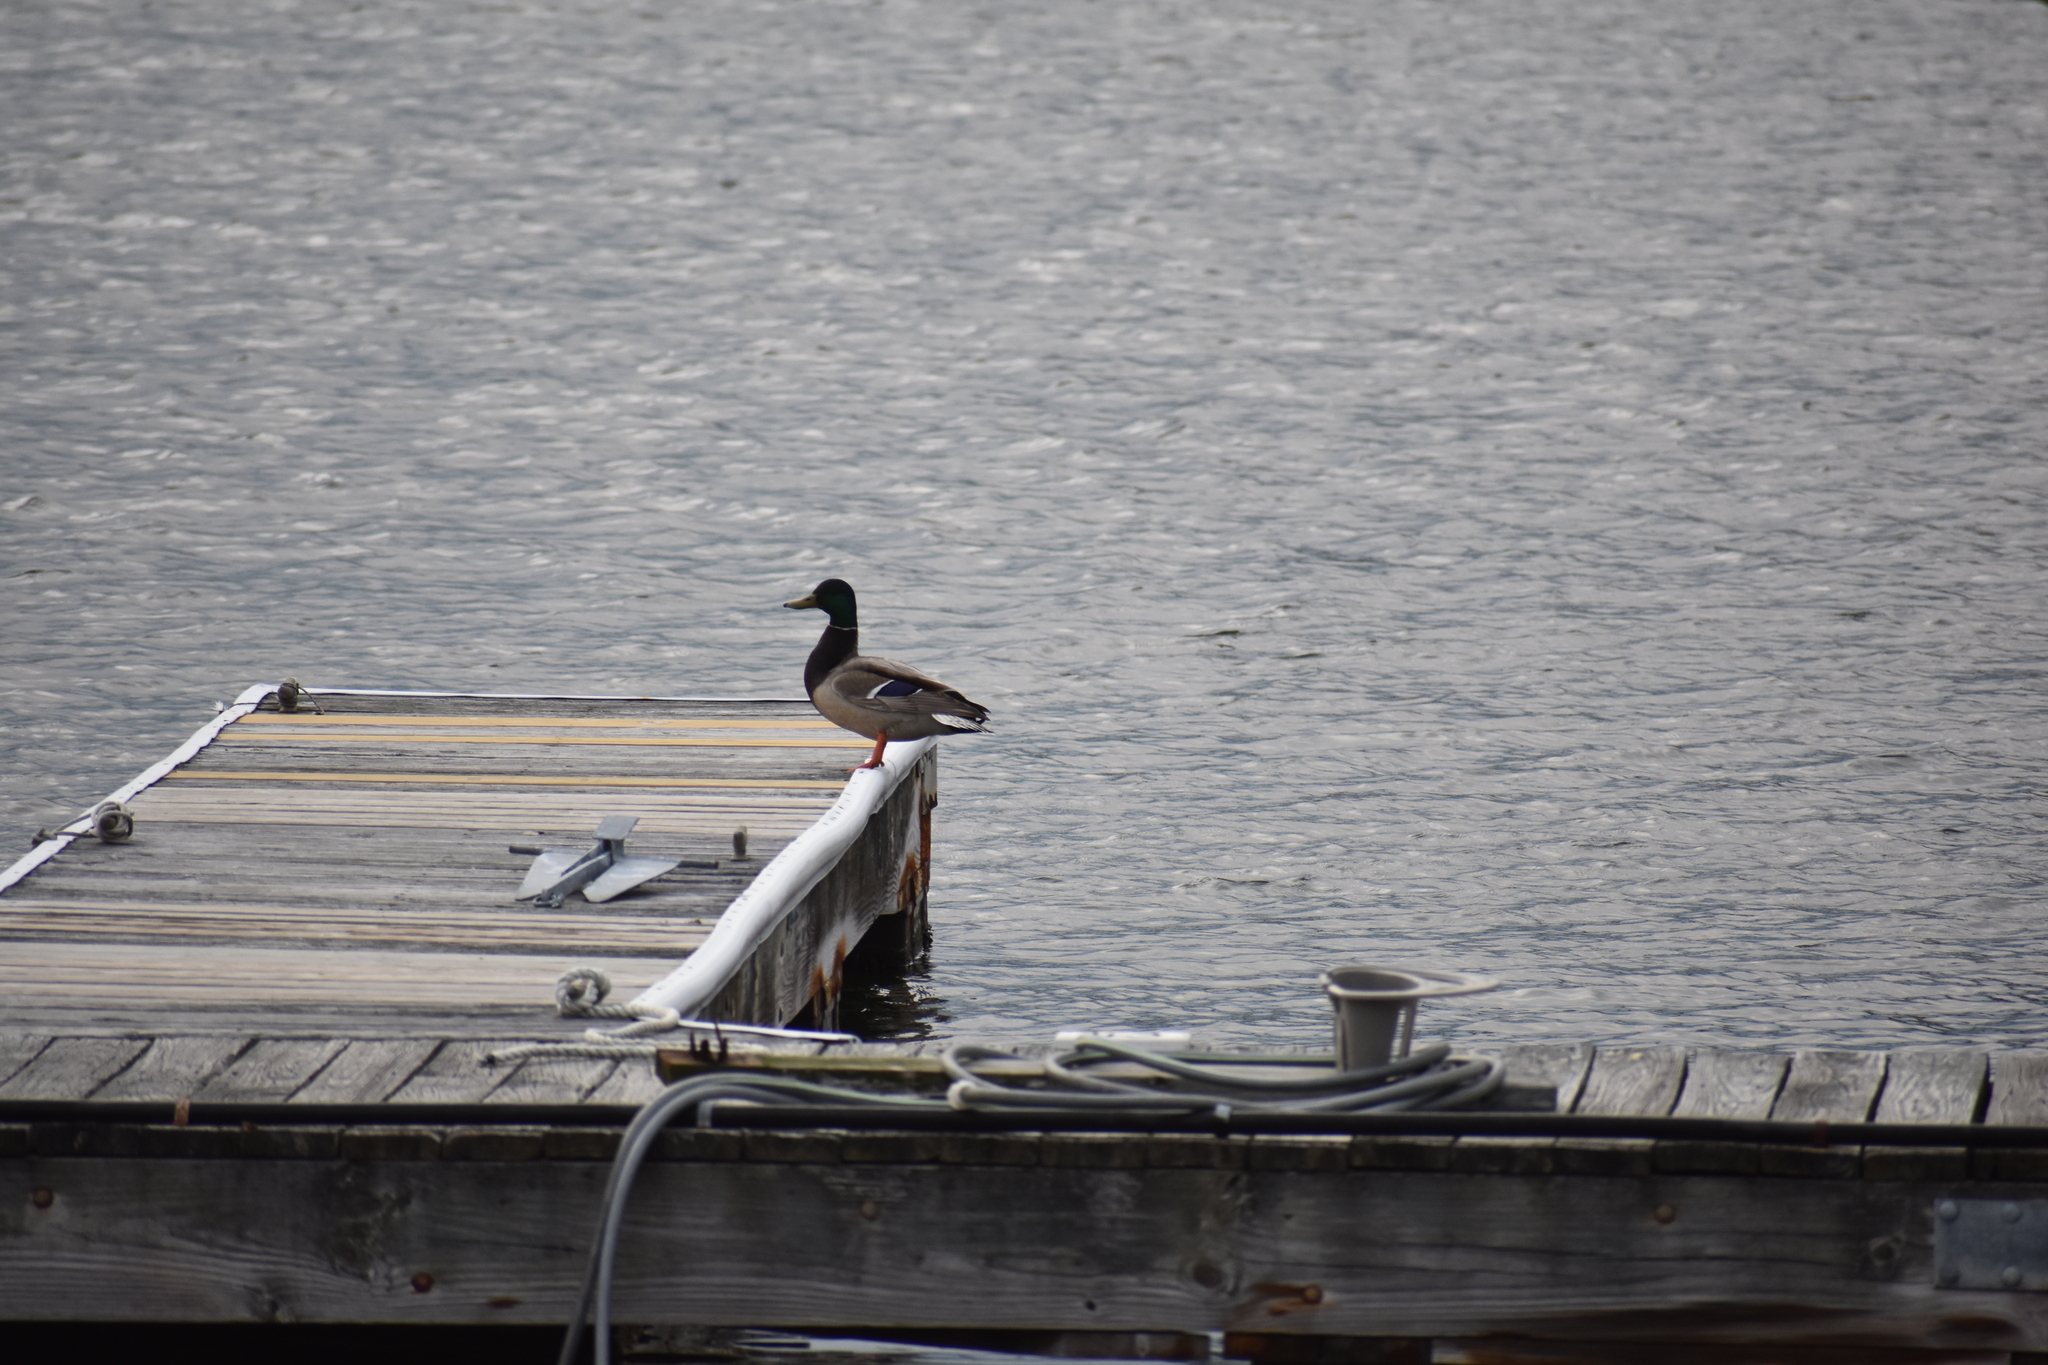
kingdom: Animalia
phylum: Chordata
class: Aves
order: Anseriformes
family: Anatidae
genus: Anas
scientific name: Anas platyrhynchos
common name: Mallard
